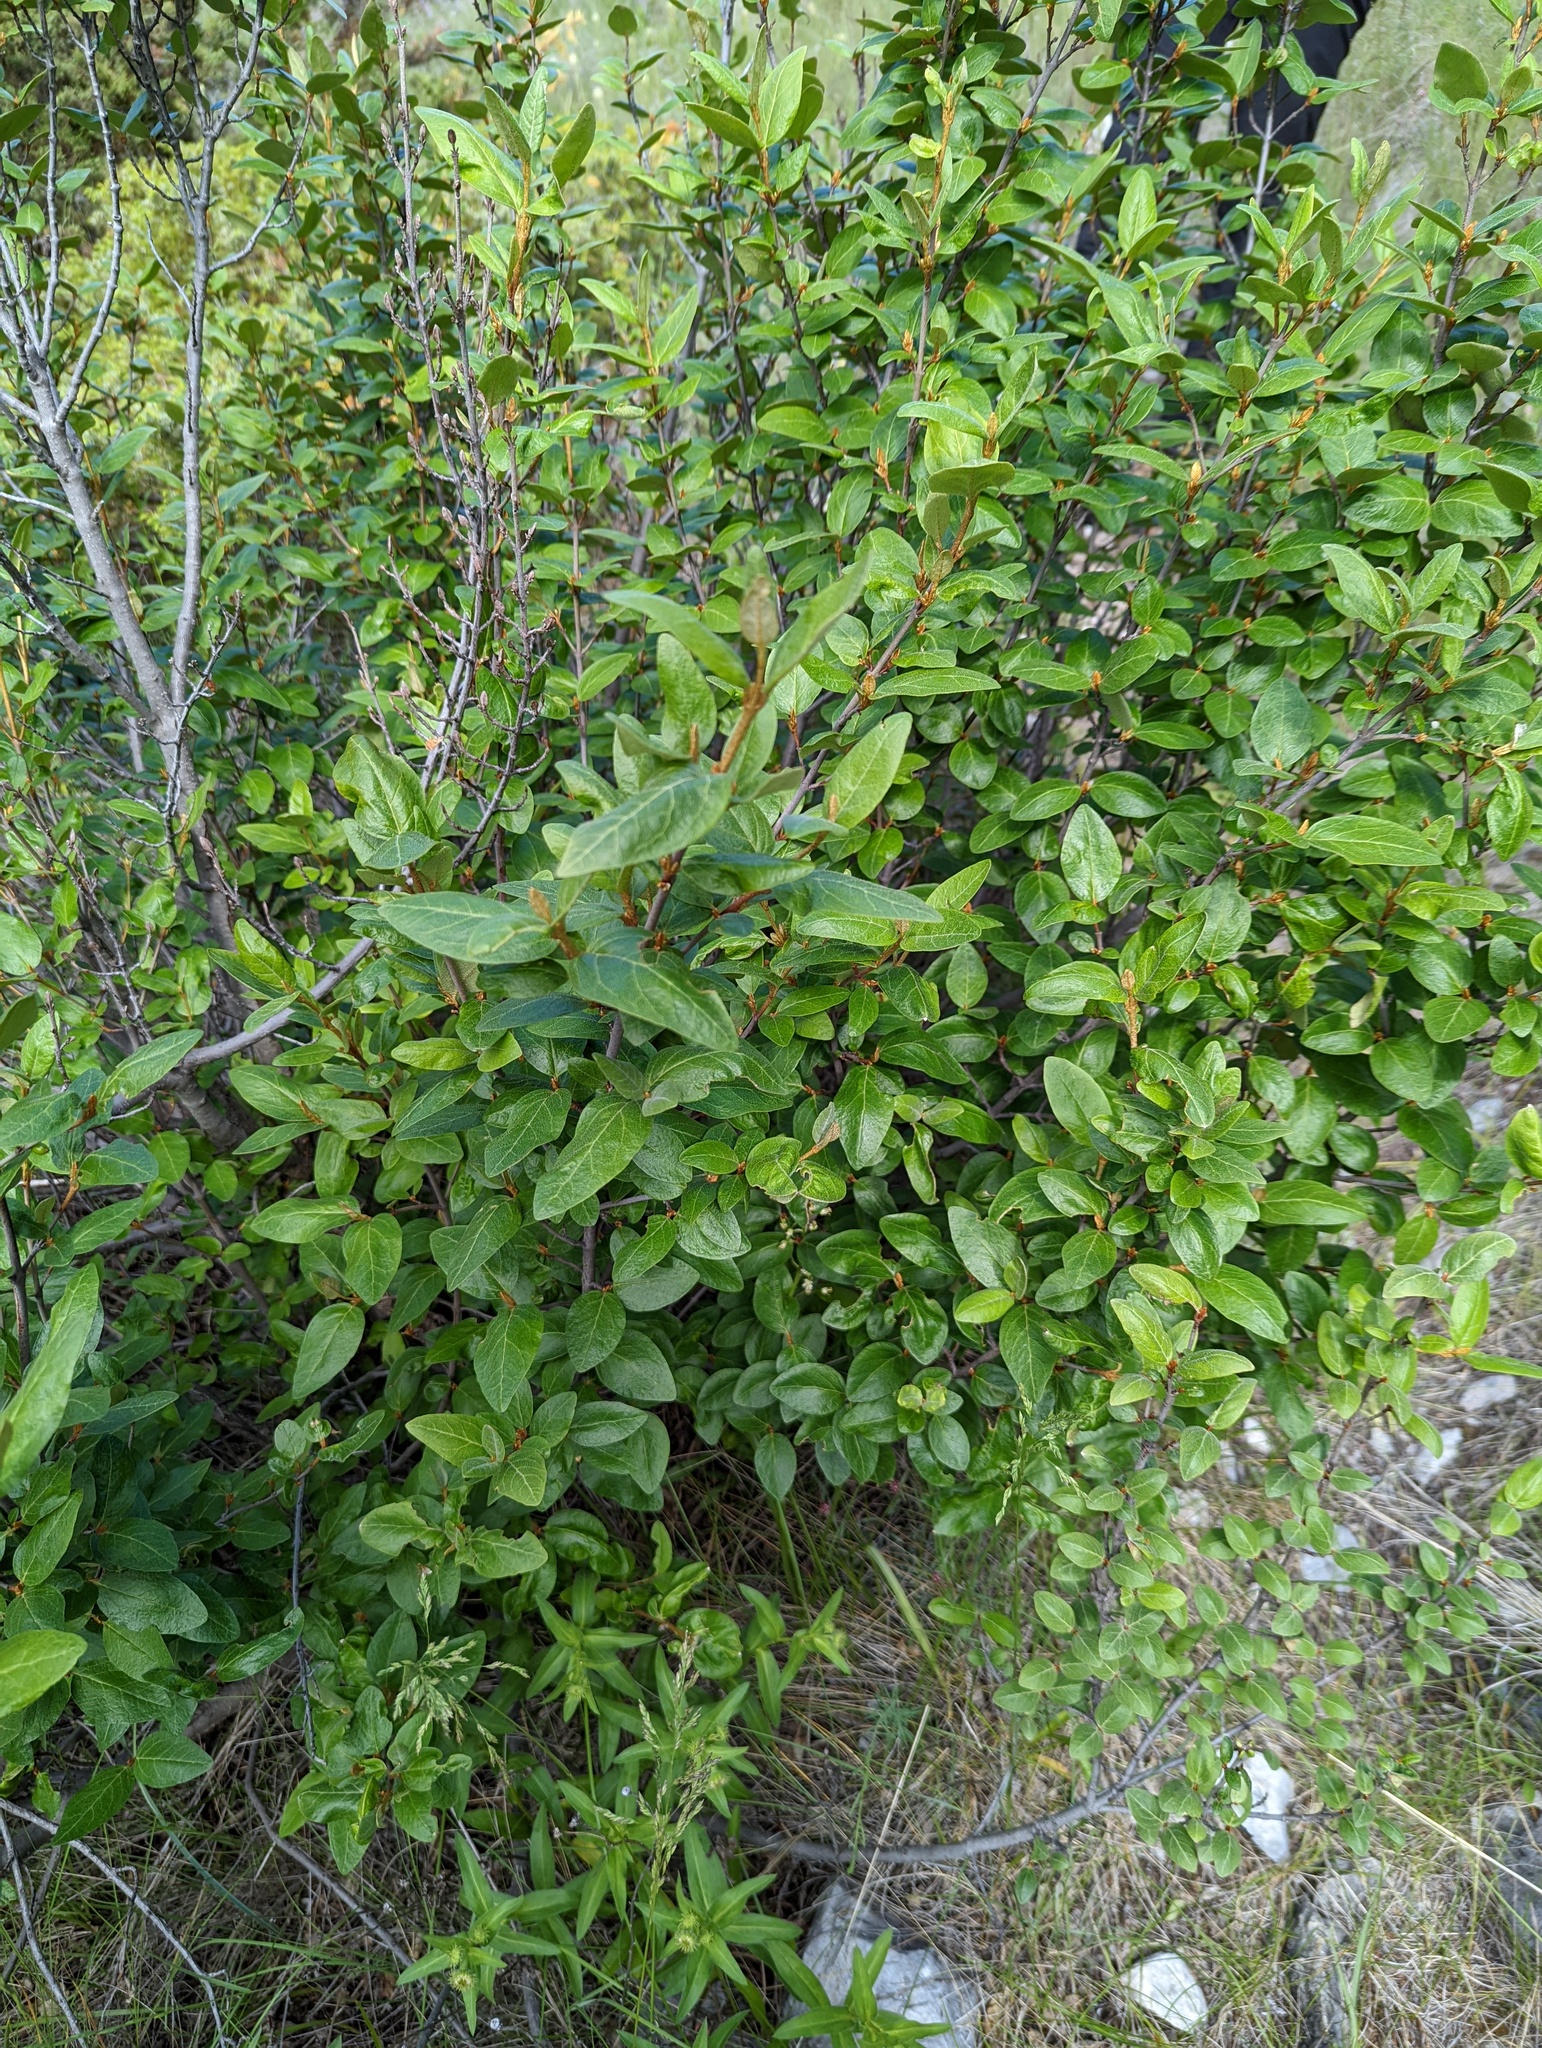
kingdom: Plantae
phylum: Tracheophyta
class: Magnoliopsida
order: Rosales
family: Elaeagnaceae
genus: Shepherdia
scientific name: Shepherdia canadensis
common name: Soapberry
